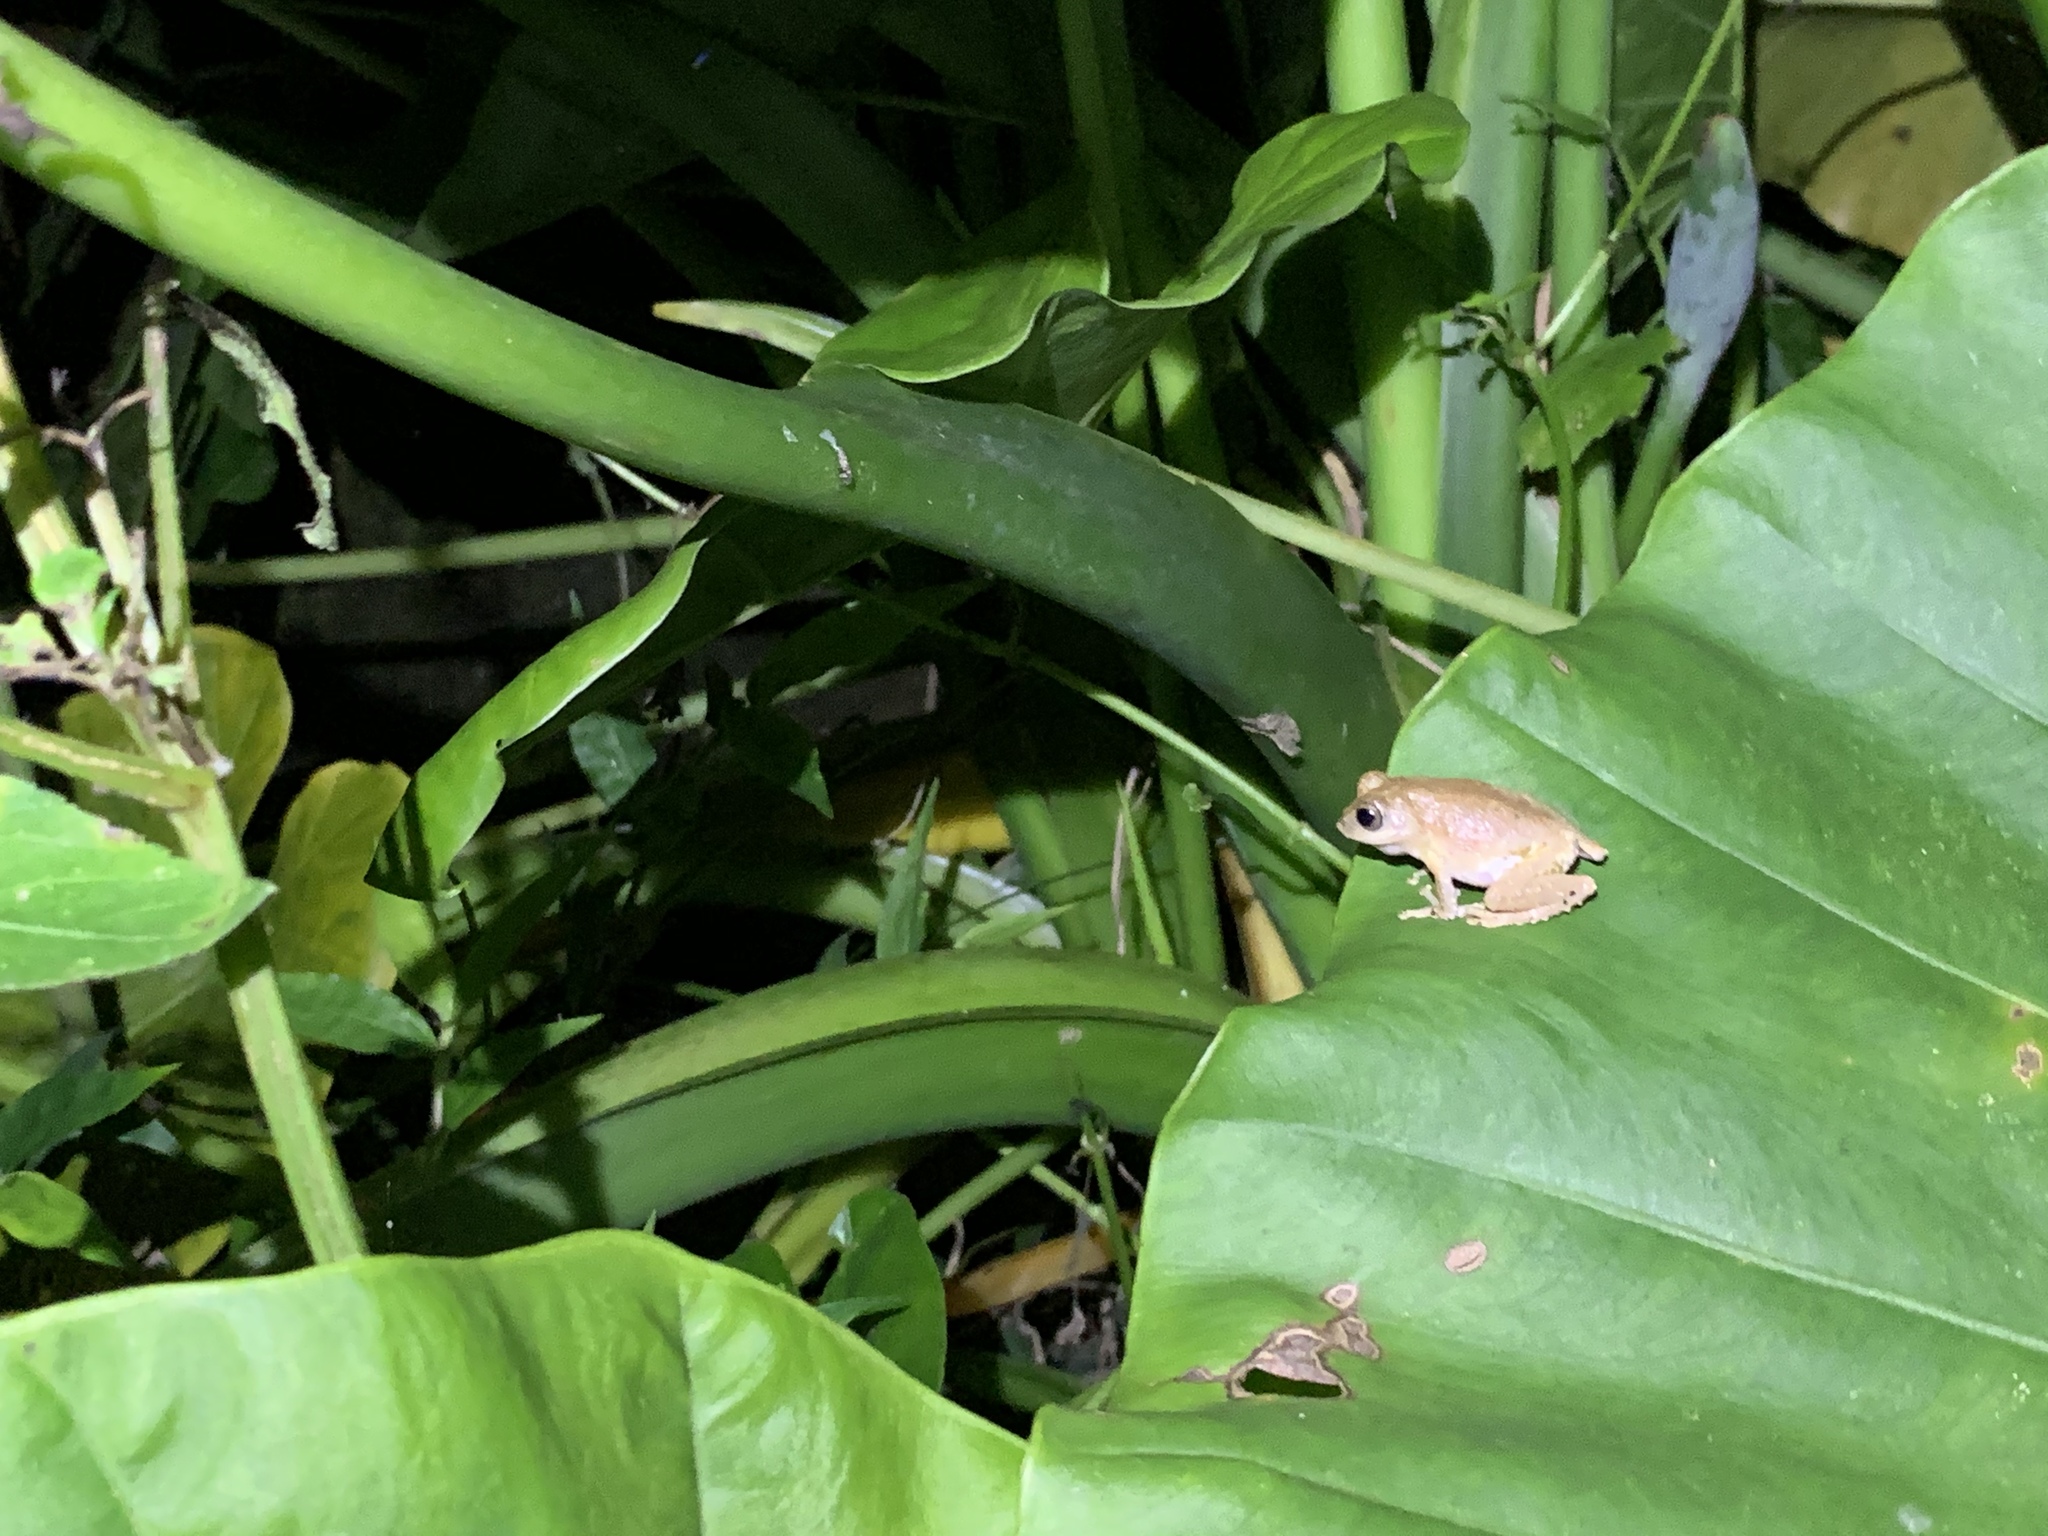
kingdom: Animalia
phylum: Chordata
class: Amphibia
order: Anura
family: Rhacophoridae
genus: Kurixalus
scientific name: Kurixalus idiootocus
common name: Temple treefrog
